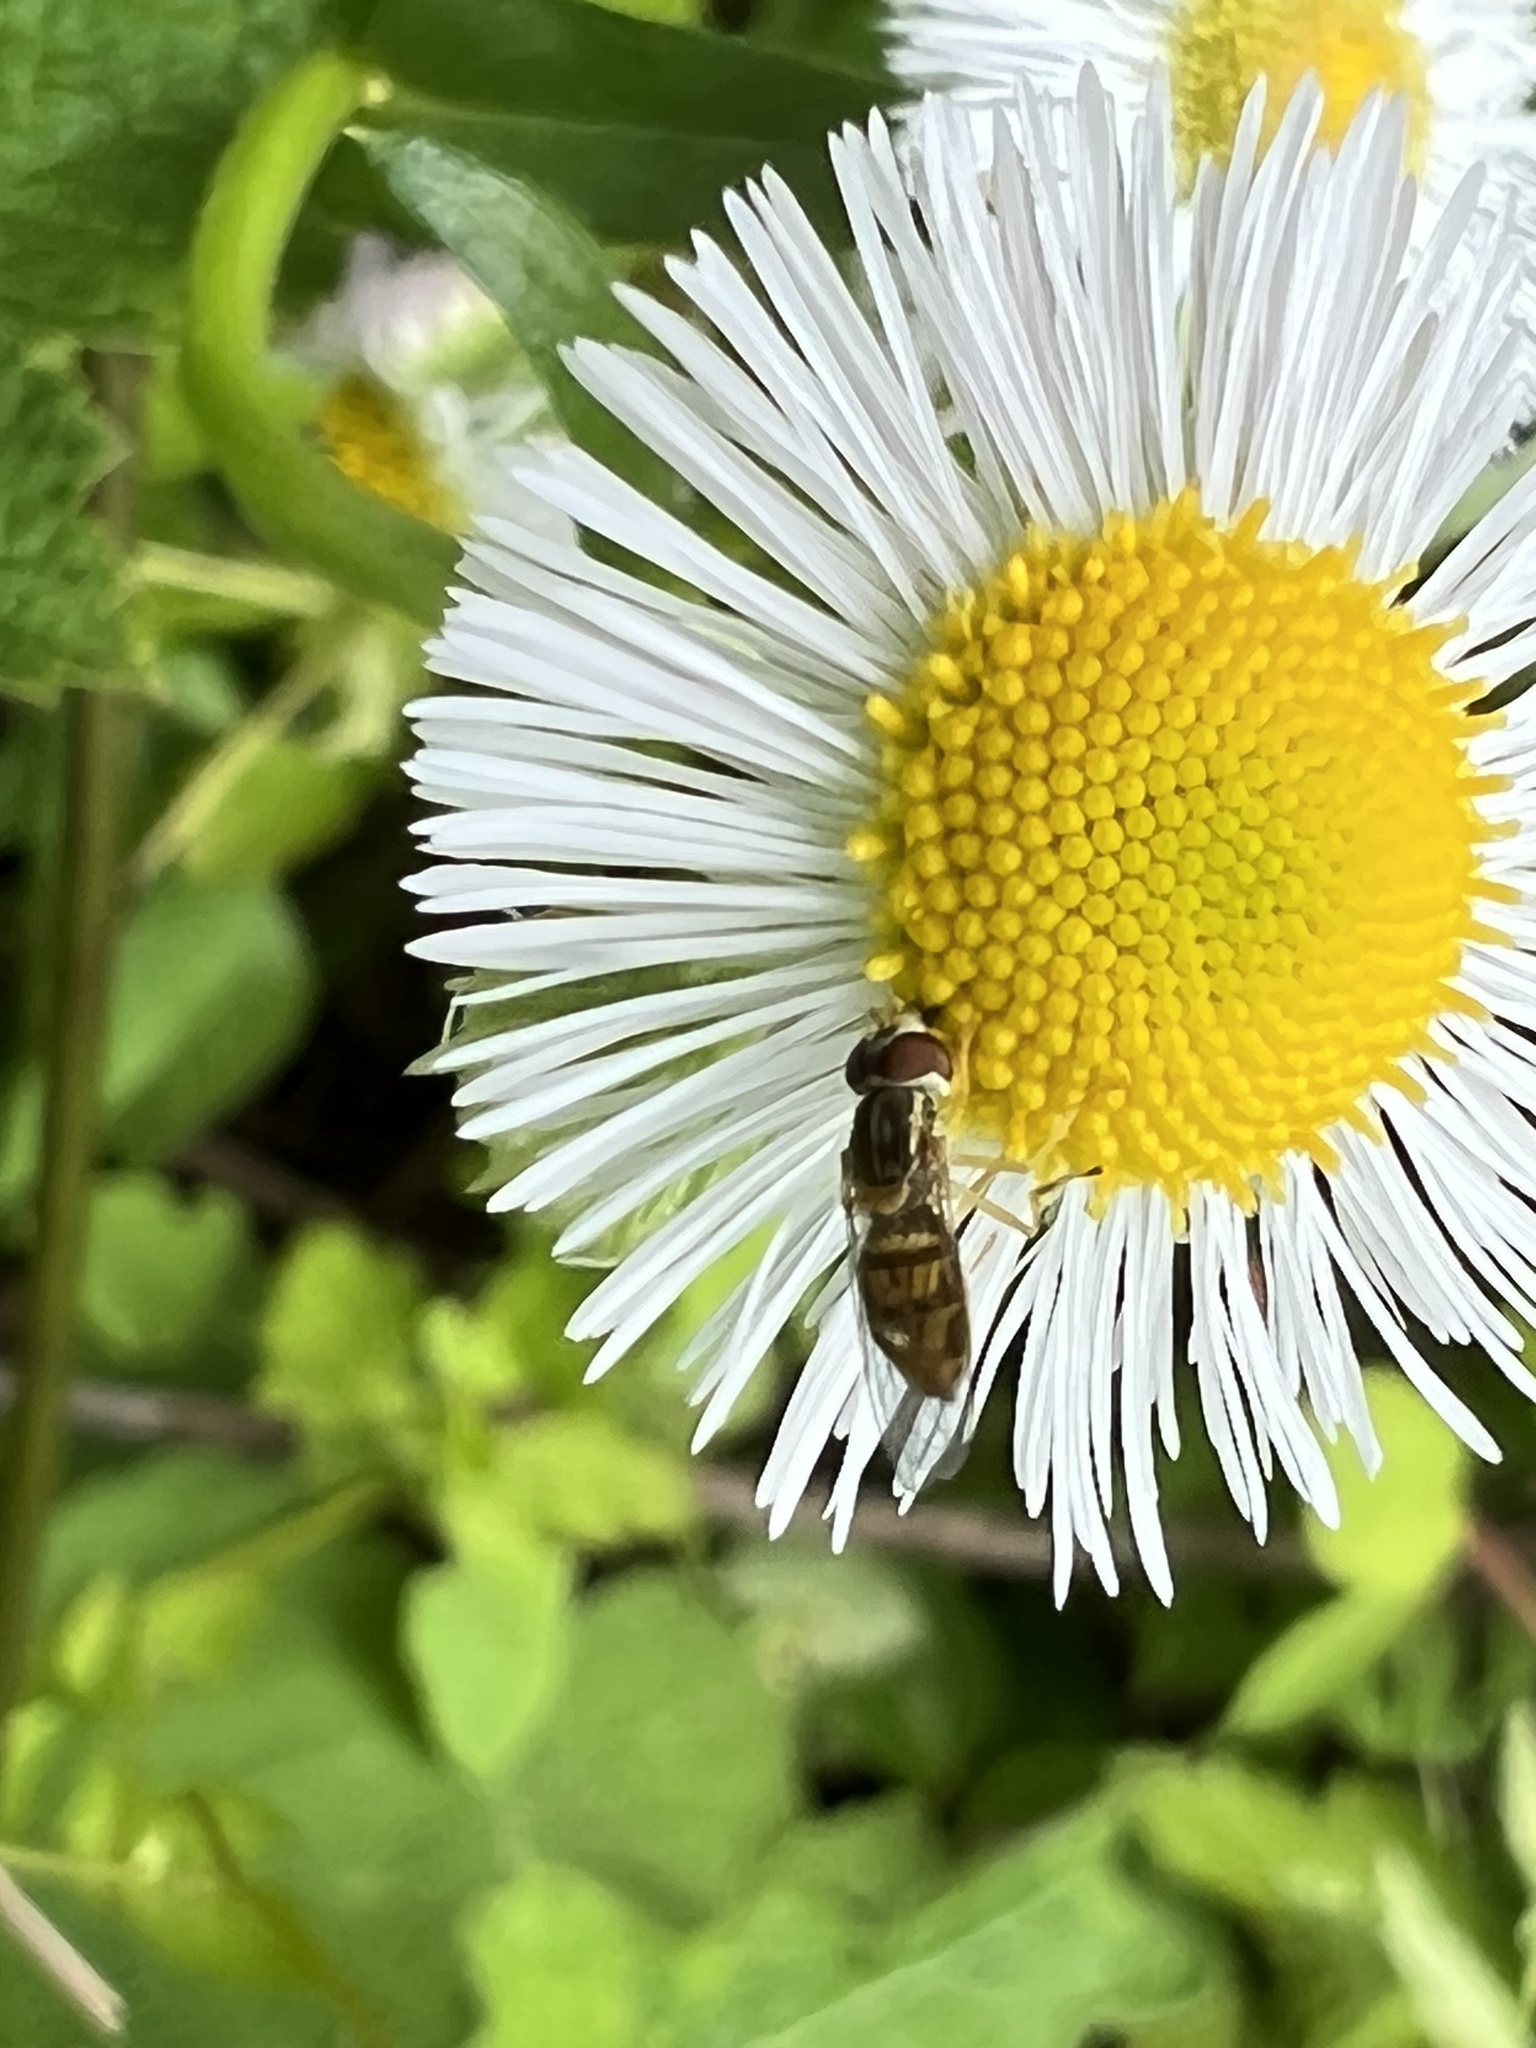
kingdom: Animalia
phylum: Arthropoda
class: Insecta
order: Diptera
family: Syrphidae
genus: Toxomerus
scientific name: Toxomerus marginatus
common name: Syrphid fly
